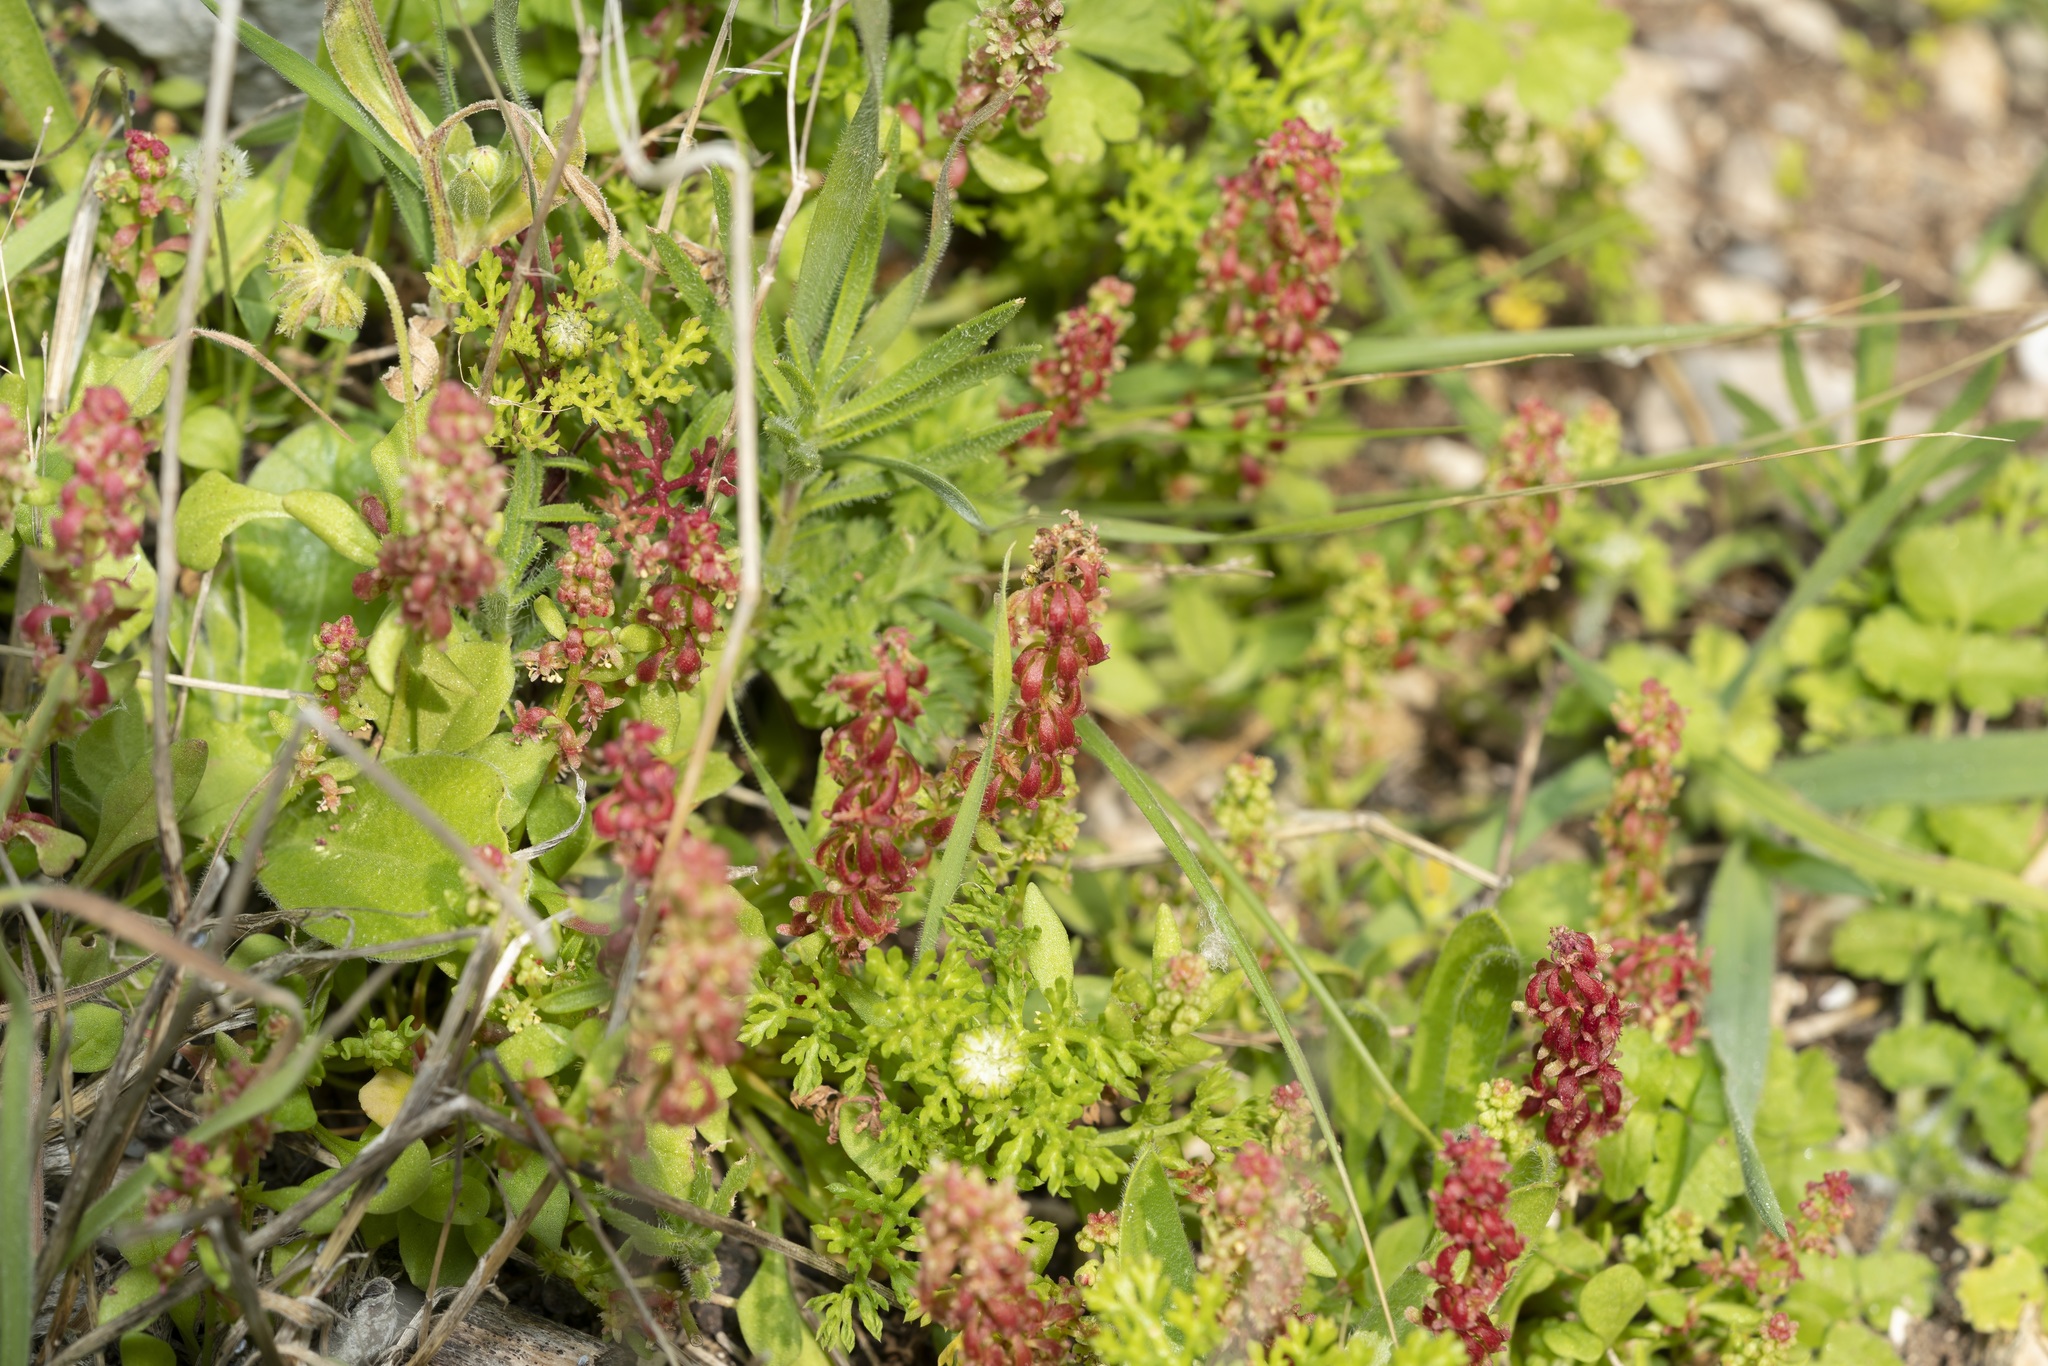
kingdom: Plantae
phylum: Tracheophyta
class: Magnoliopsida
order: Caryophyllales
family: Polygonaceae
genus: Rumex
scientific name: Rumex bucephalophorus
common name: Red dock
